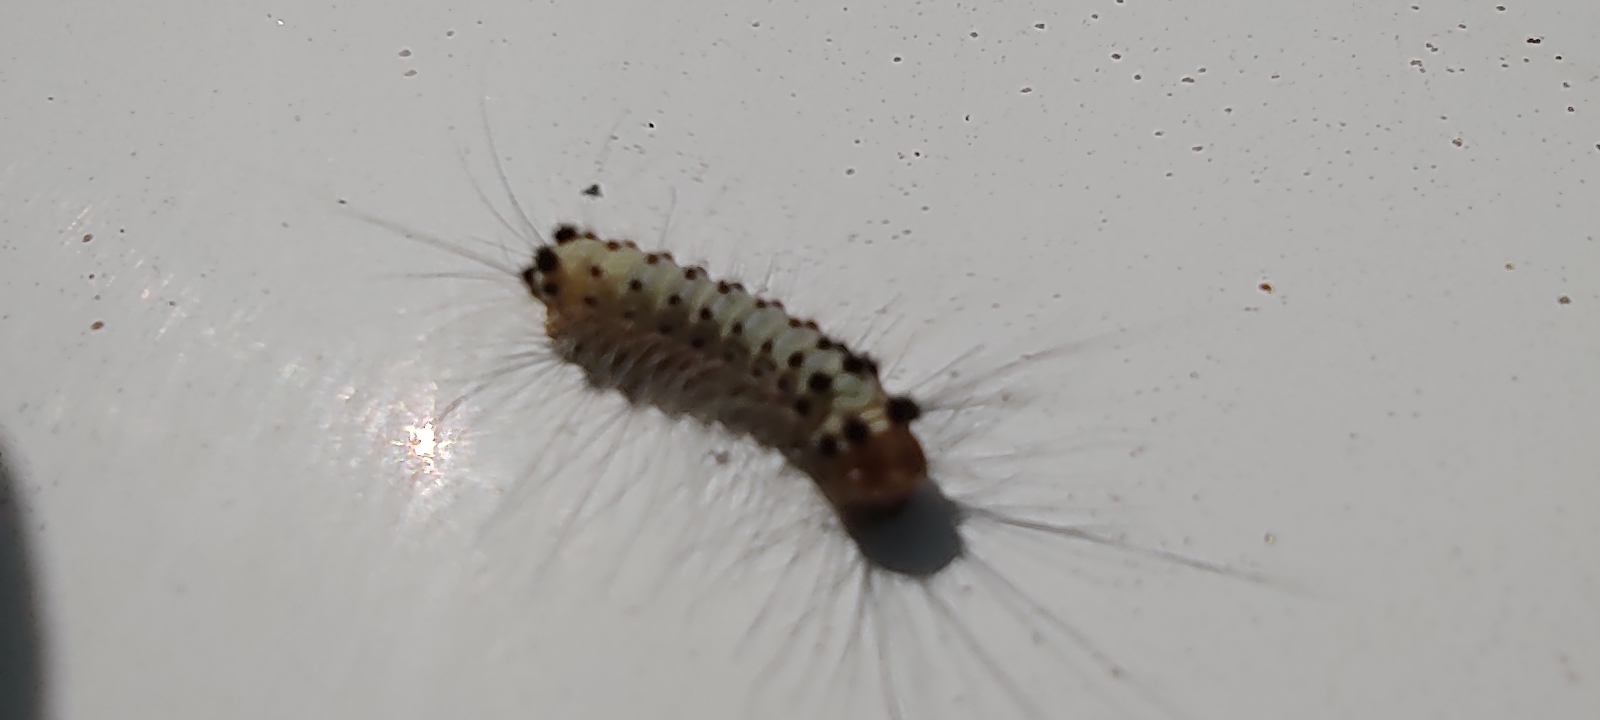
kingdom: Animalia
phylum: Arthropoda
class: Insecta
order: Lepidoptera
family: Zygaenidae
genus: Artona
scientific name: Artona martini
